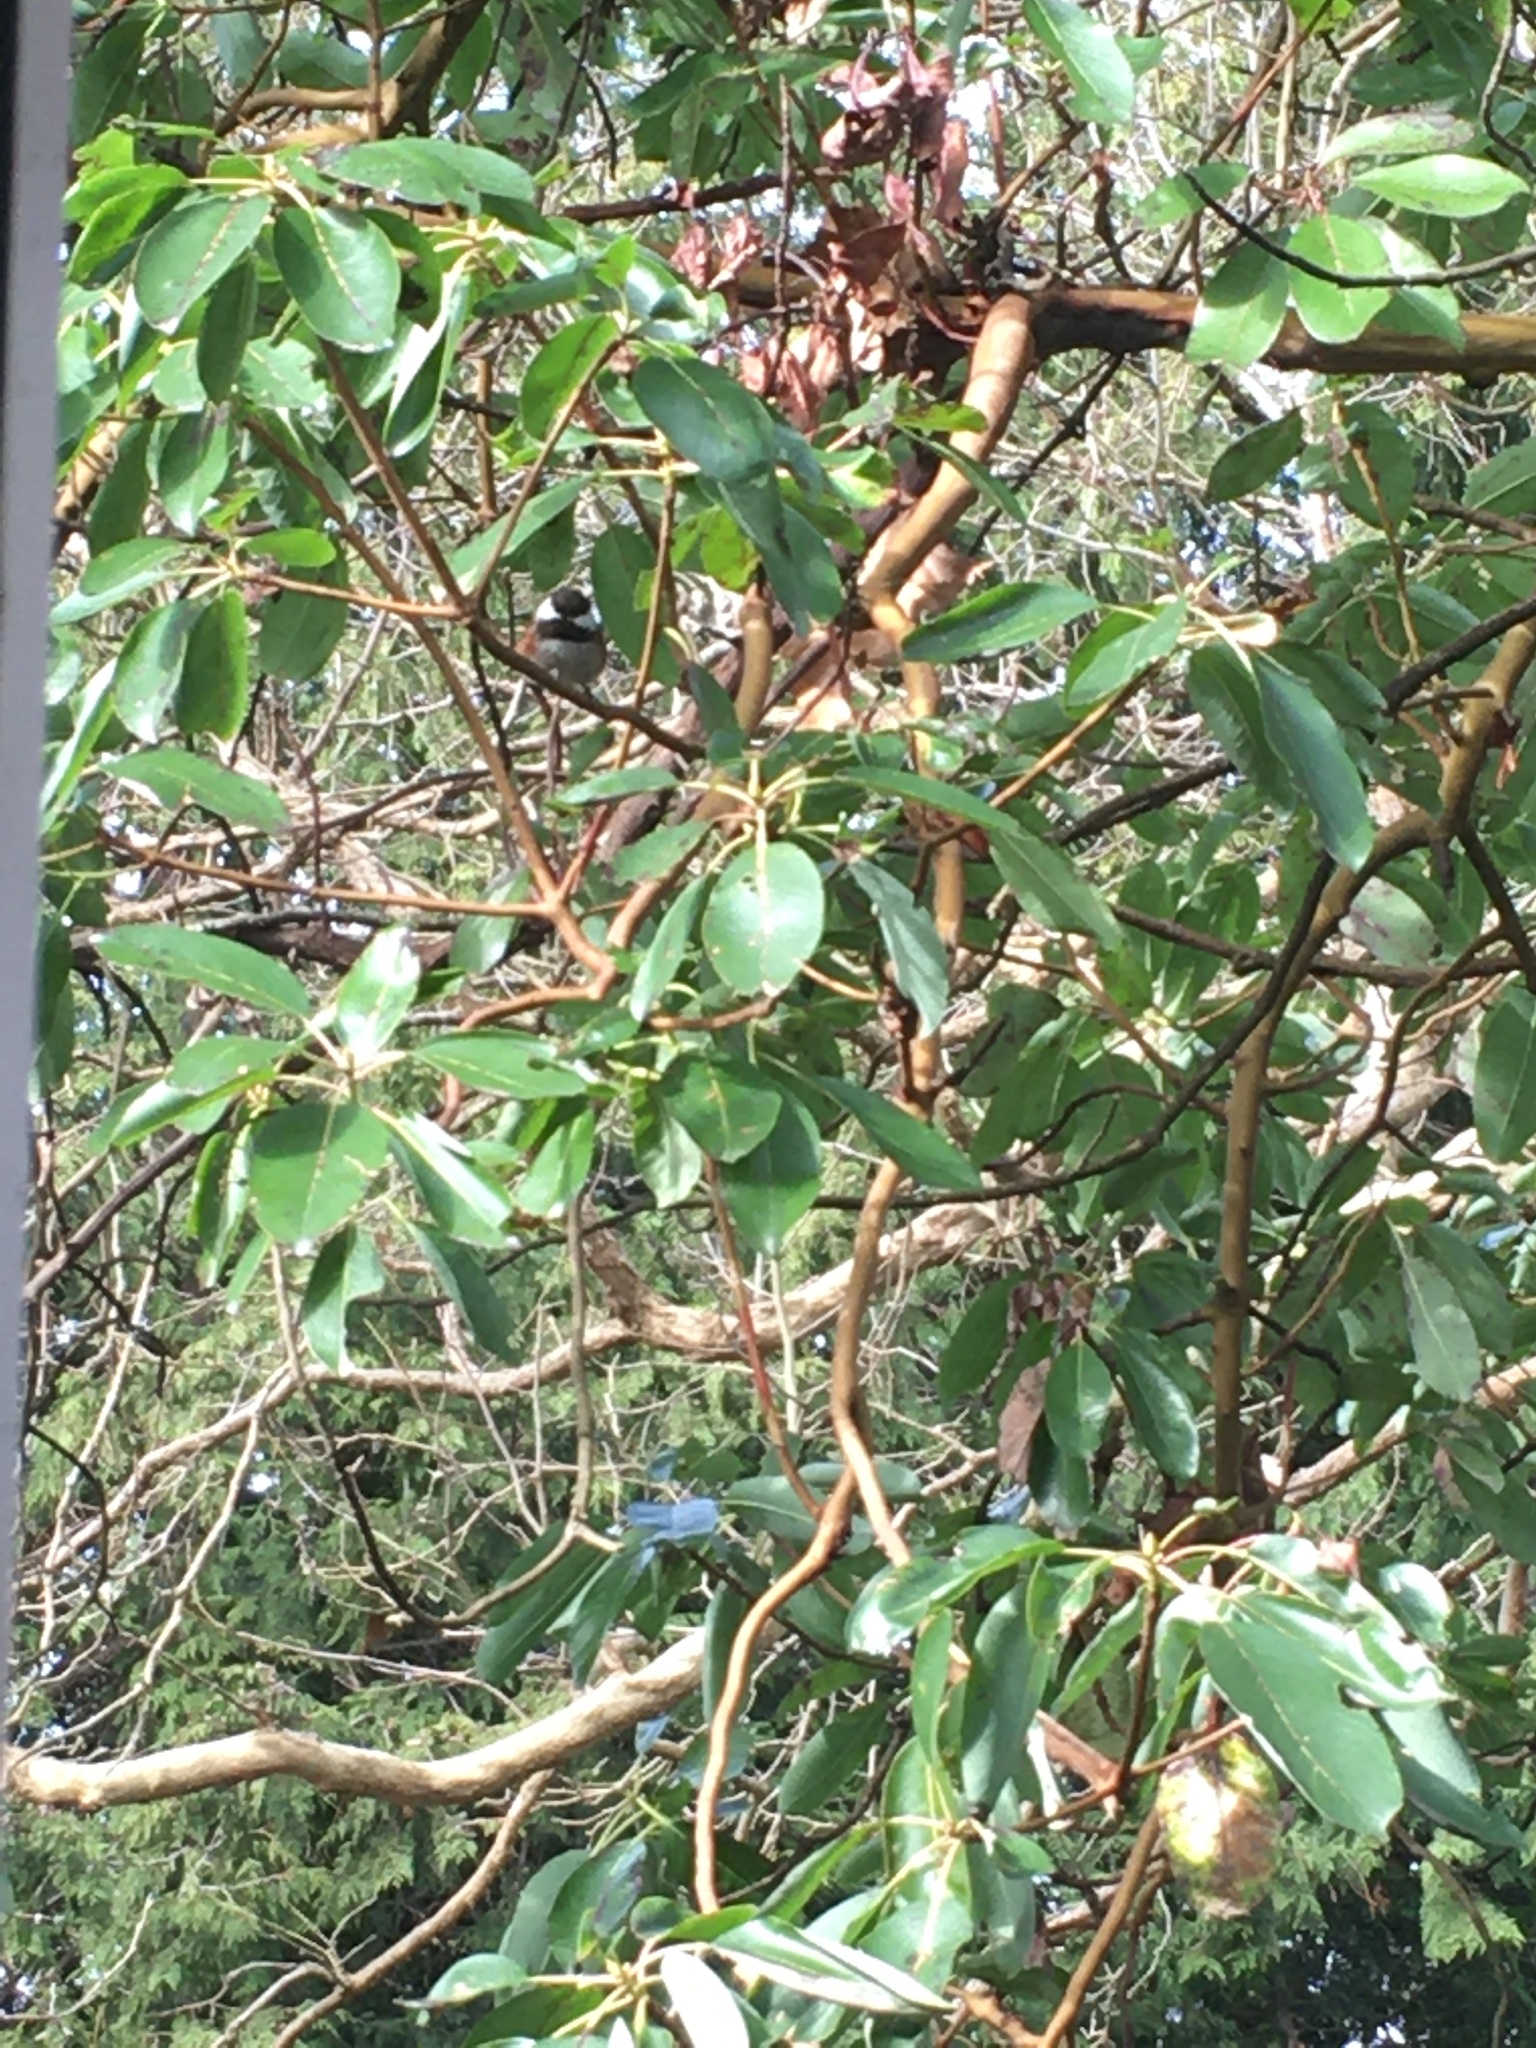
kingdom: Animalia
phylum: Chordata
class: Aves
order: Passeriformes
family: Paridae
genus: Poecile
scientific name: Poecile rufescens
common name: Chestnut-backed chickadee
